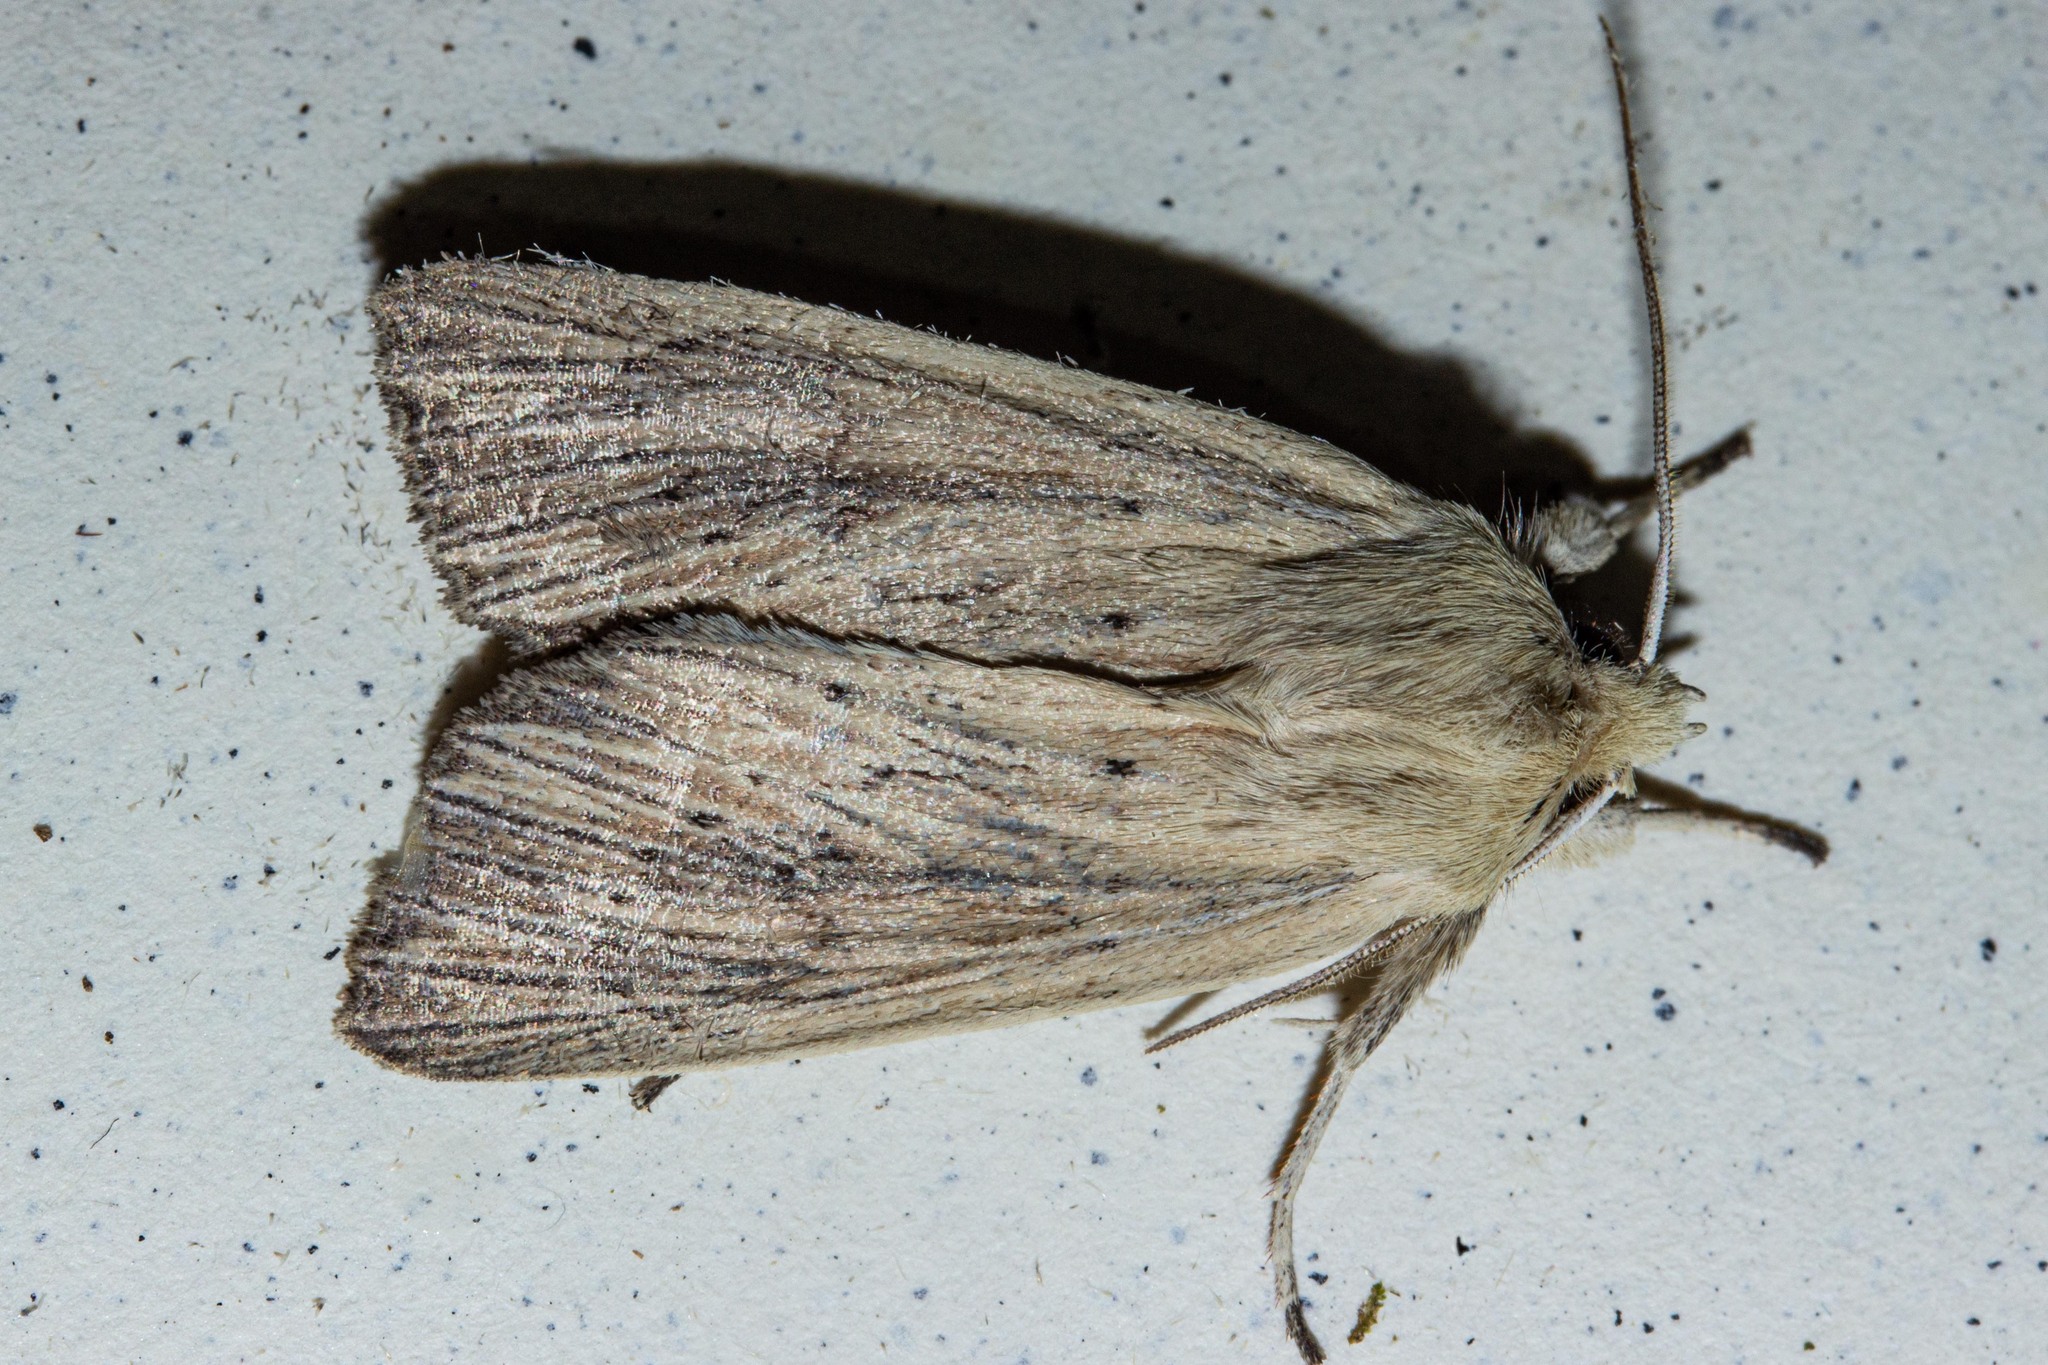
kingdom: Animalia
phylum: Arthropoda
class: Insecta
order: Lepidoptera
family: Noctuidae
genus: Ichneutica
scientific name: Ichneutica arotis
